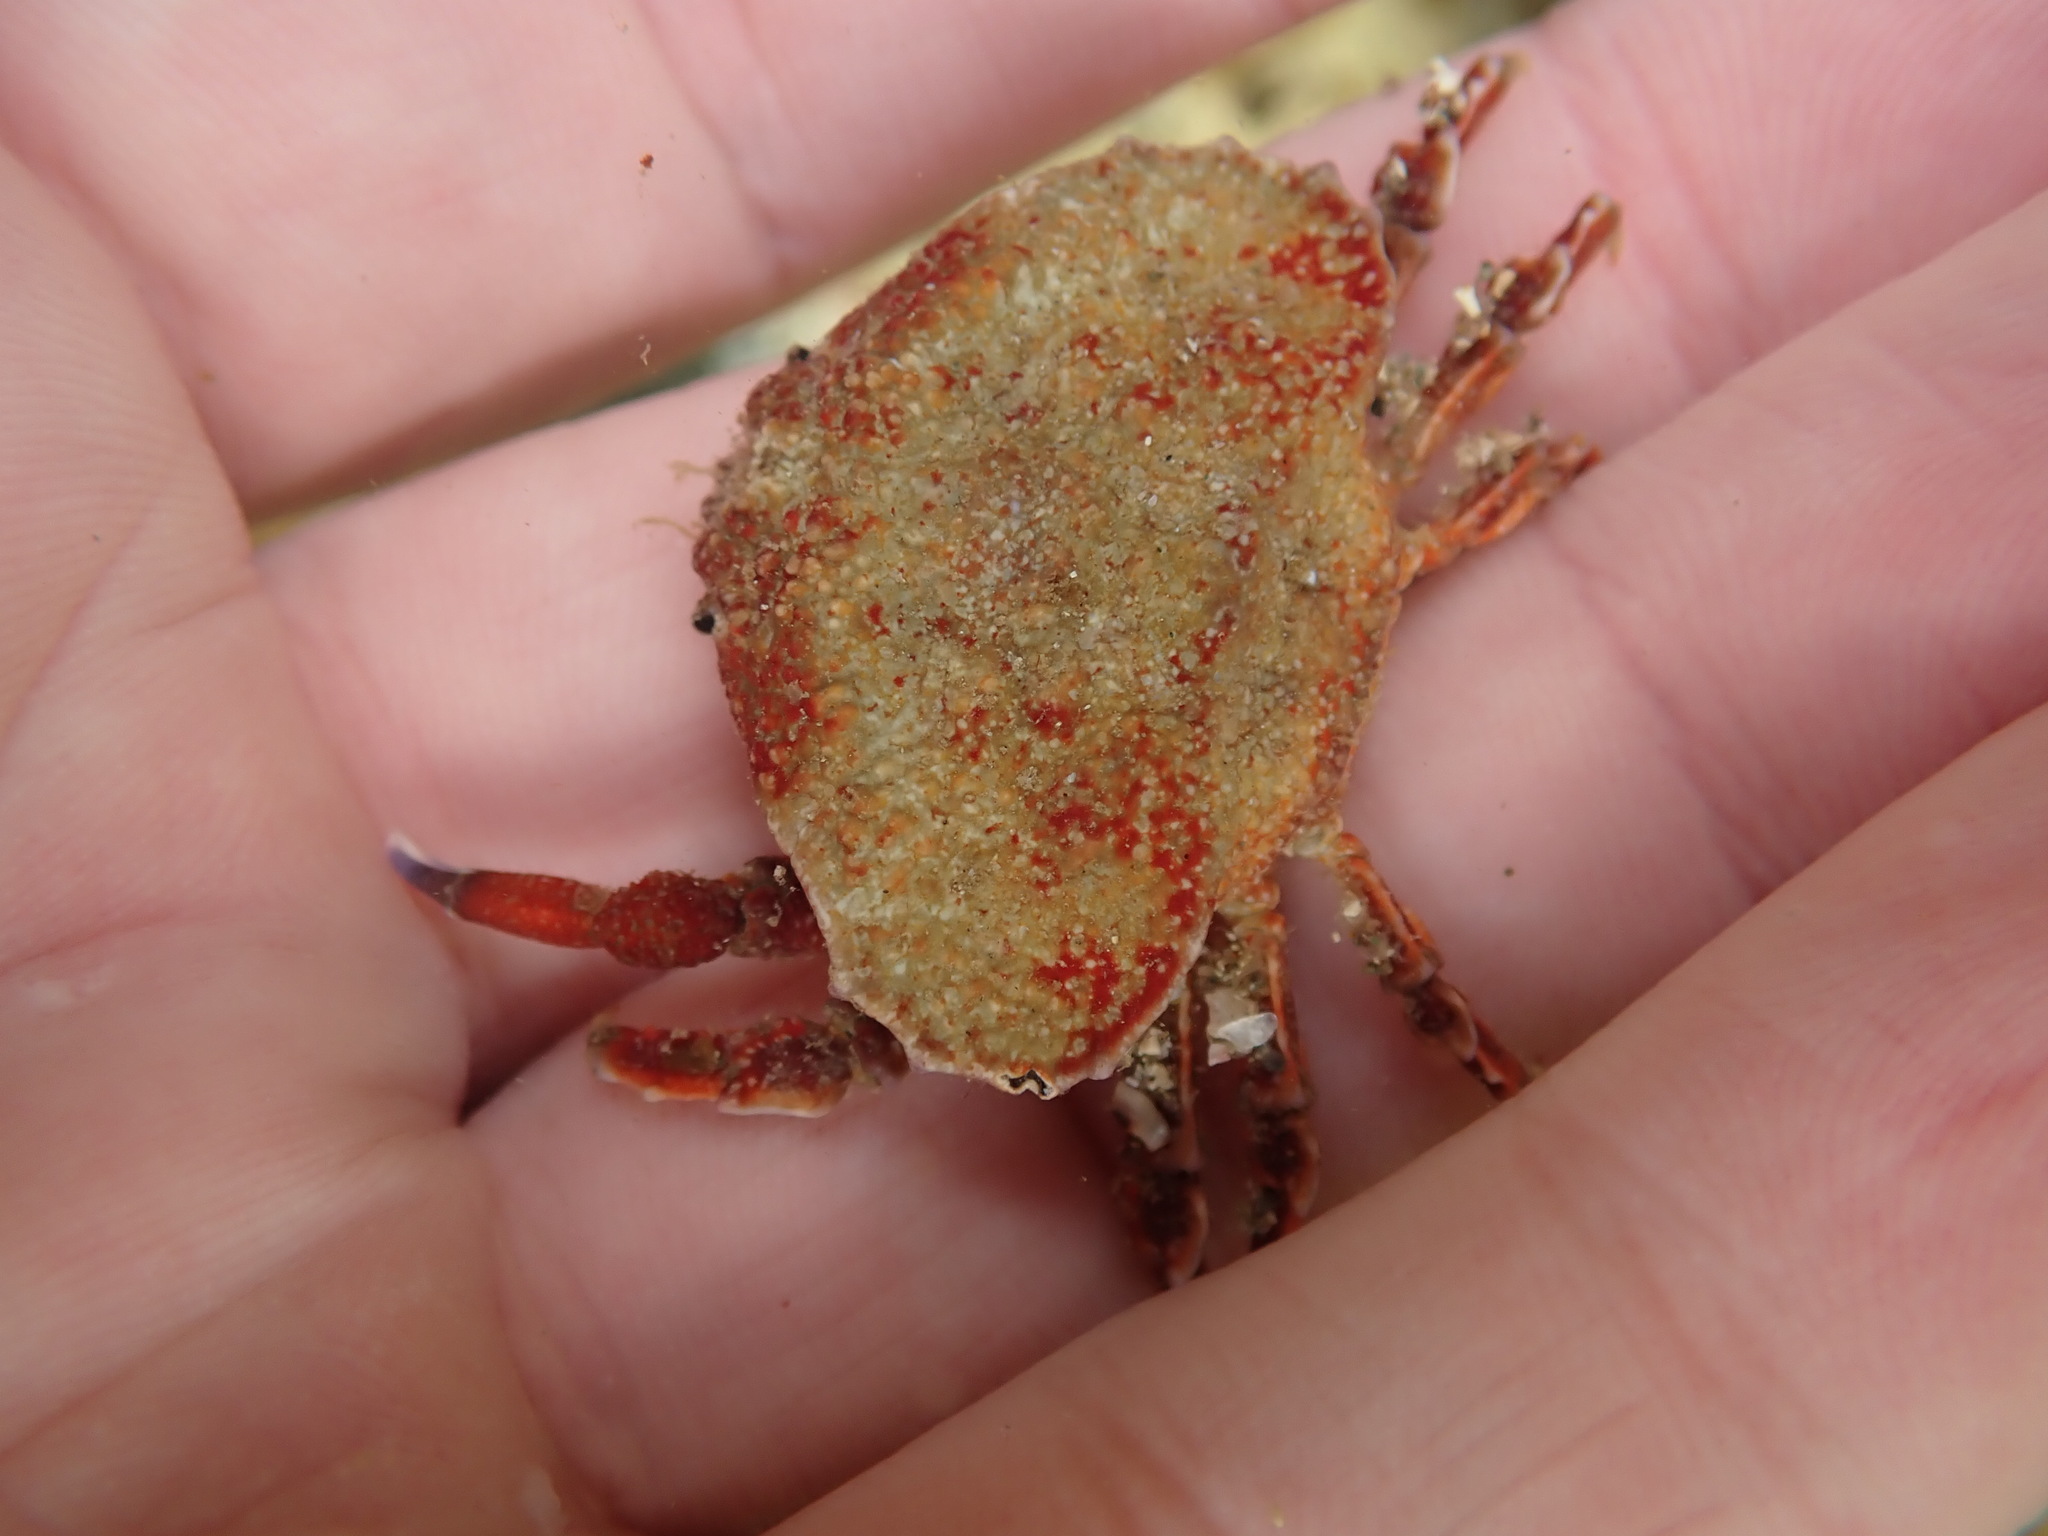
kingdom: Animalia
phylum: Arthropoda
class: Malacostraca
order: Decapoda
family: Majidae
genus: Eurynolambrus
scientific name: Eurynolambrus australis
